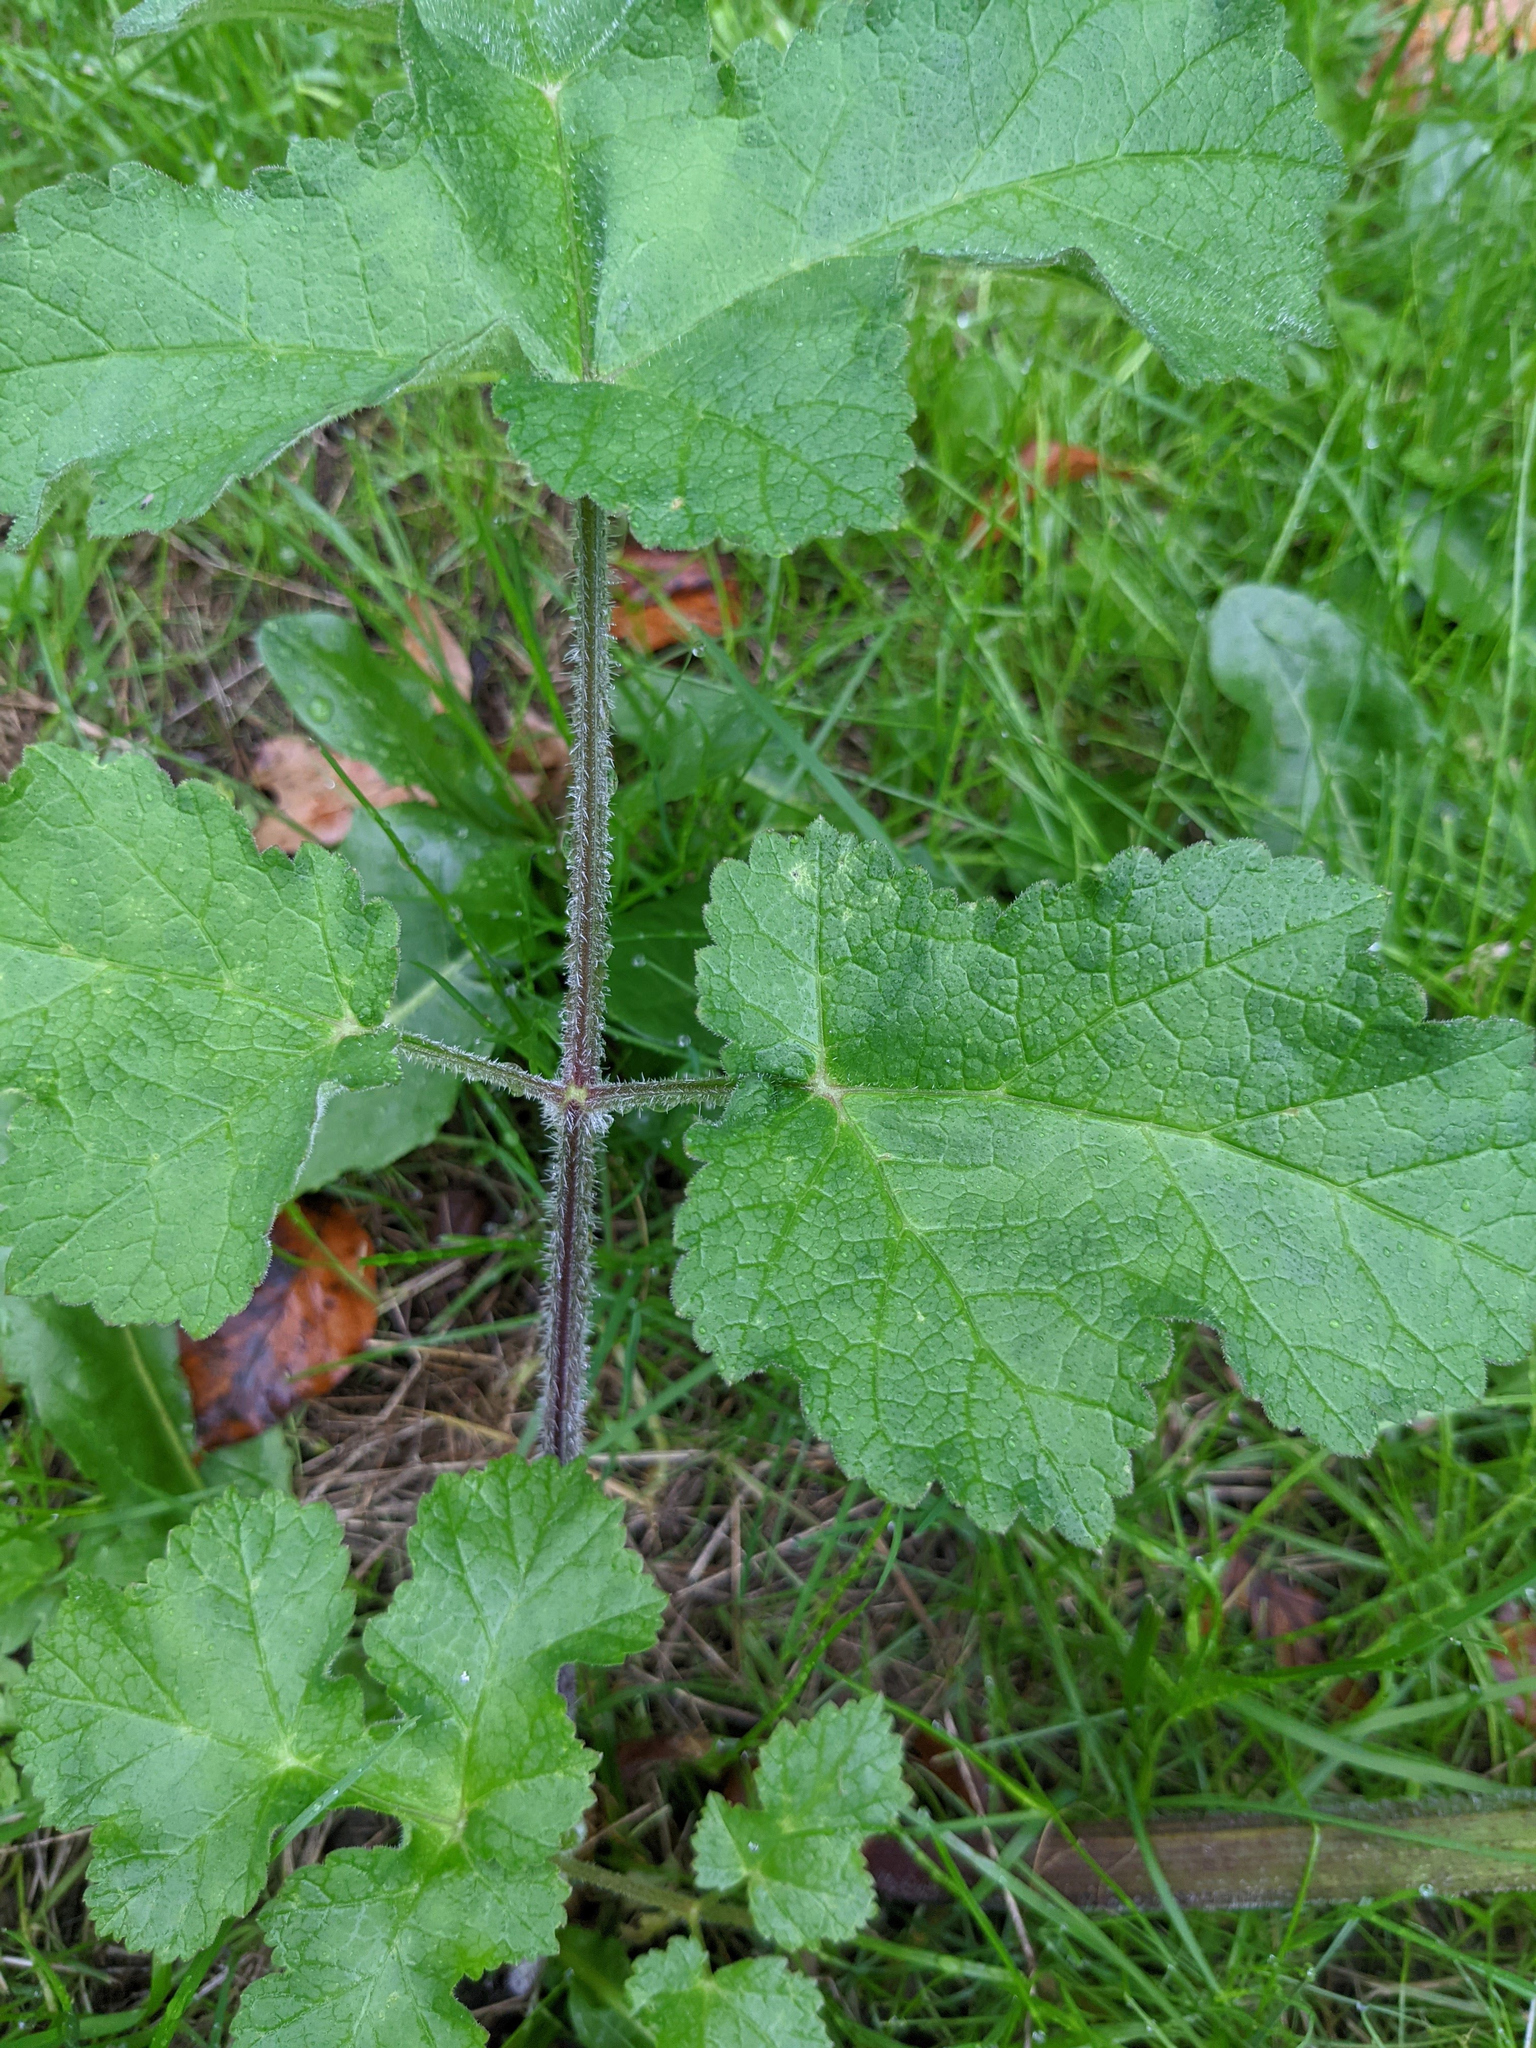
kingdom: Plantae
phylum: Tracheophyta
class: Magnoliopsida
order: Apiales
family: Apiaceae
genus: Heracleum
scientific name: Heracleum sphondylium
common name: Hogweed
